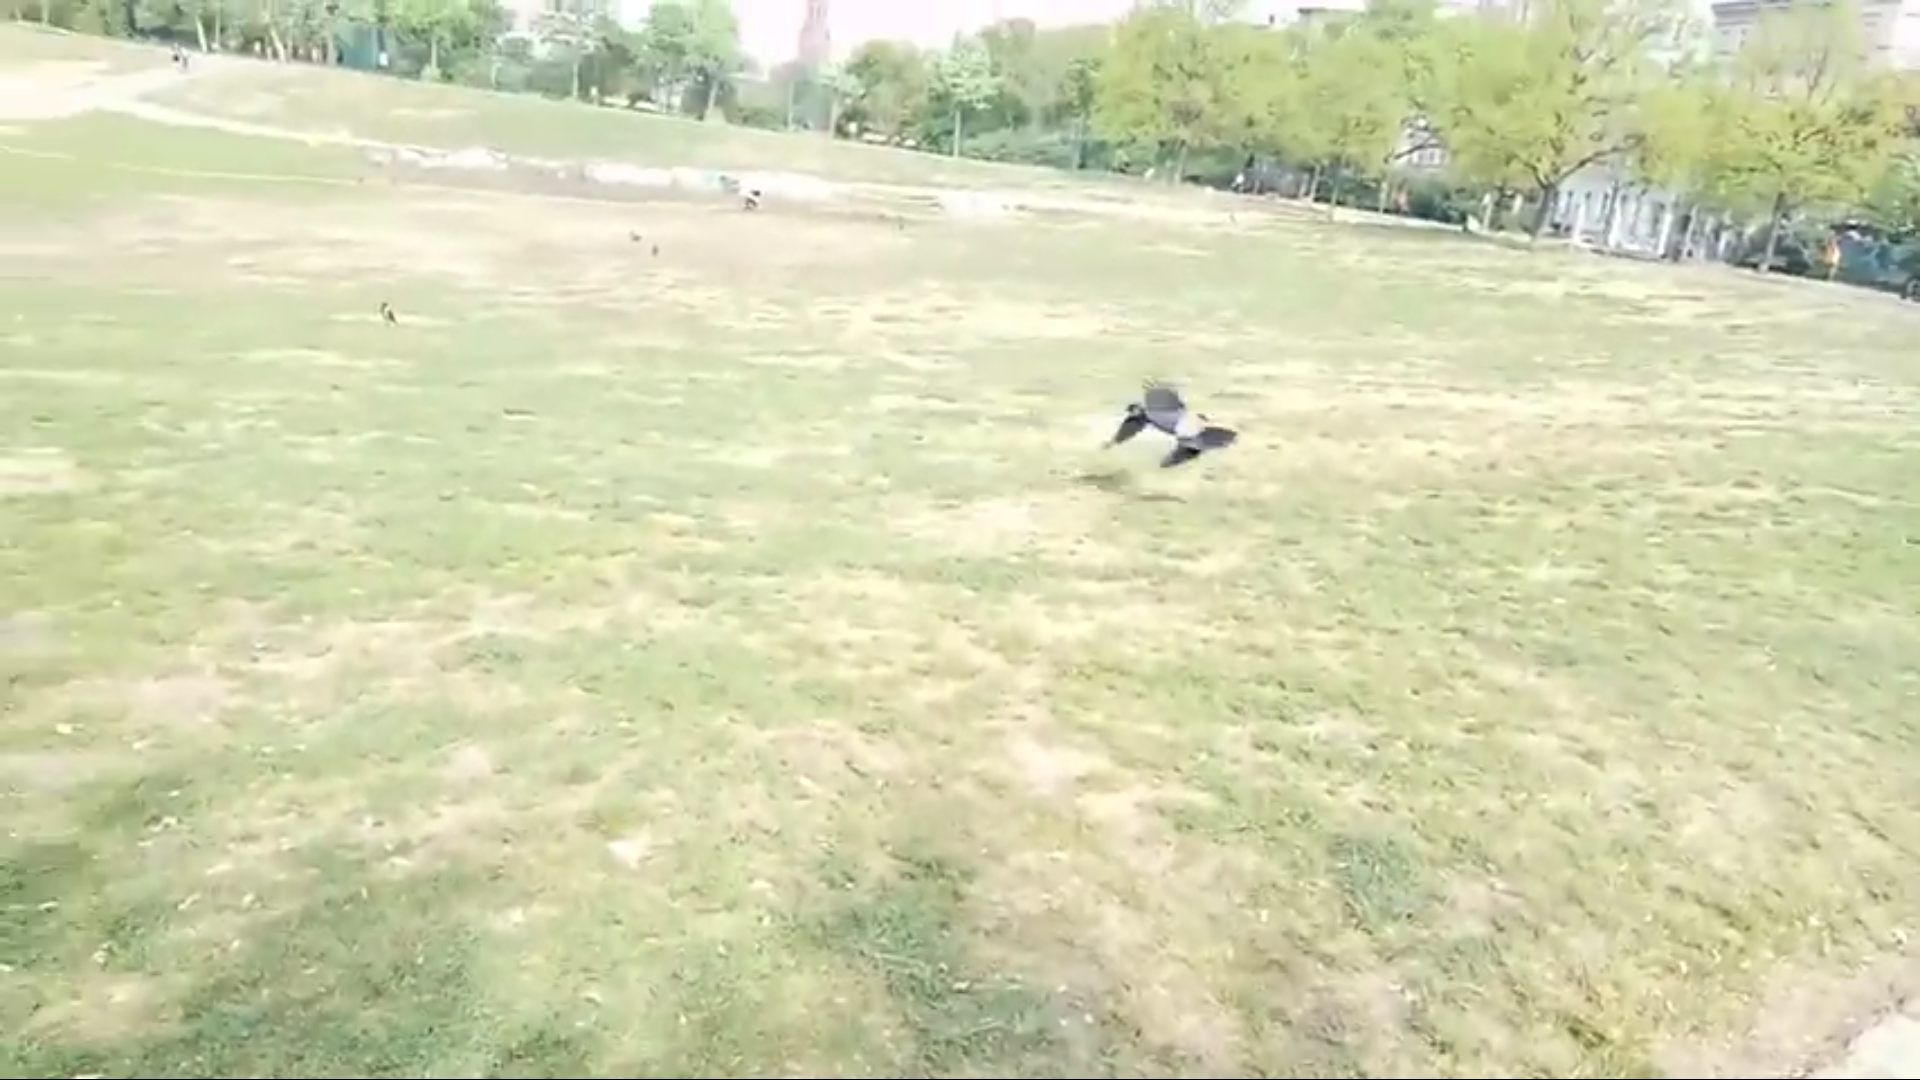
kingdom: Animalia
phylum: Chordata
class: Aves
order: Passeriformes
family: Corvidae
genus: Corvus
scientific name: Corvus cornix
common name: Hooded crow
